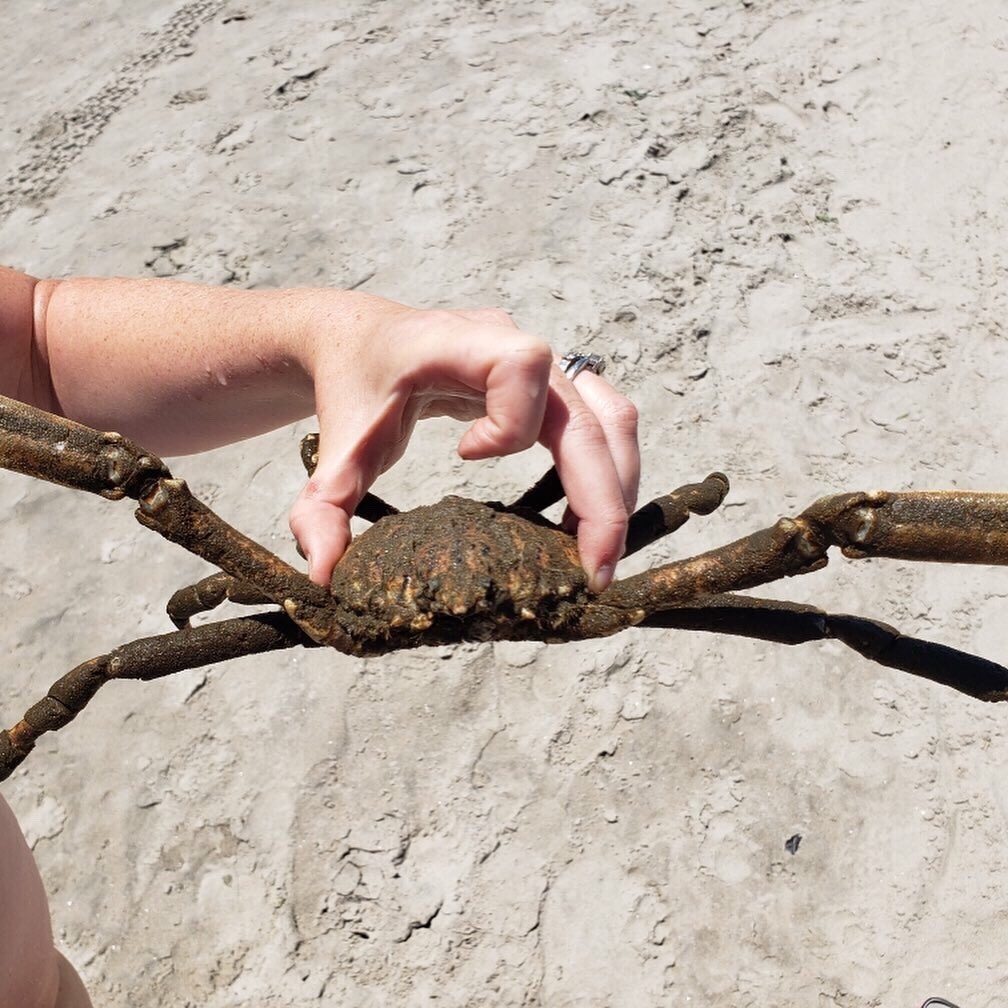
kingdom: Animalia
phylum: Arthropoda
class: Malacostraca
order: Decapoda
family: Epialtidae
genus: Libinia
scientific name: Libinia emarginata
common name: Common spider crab
